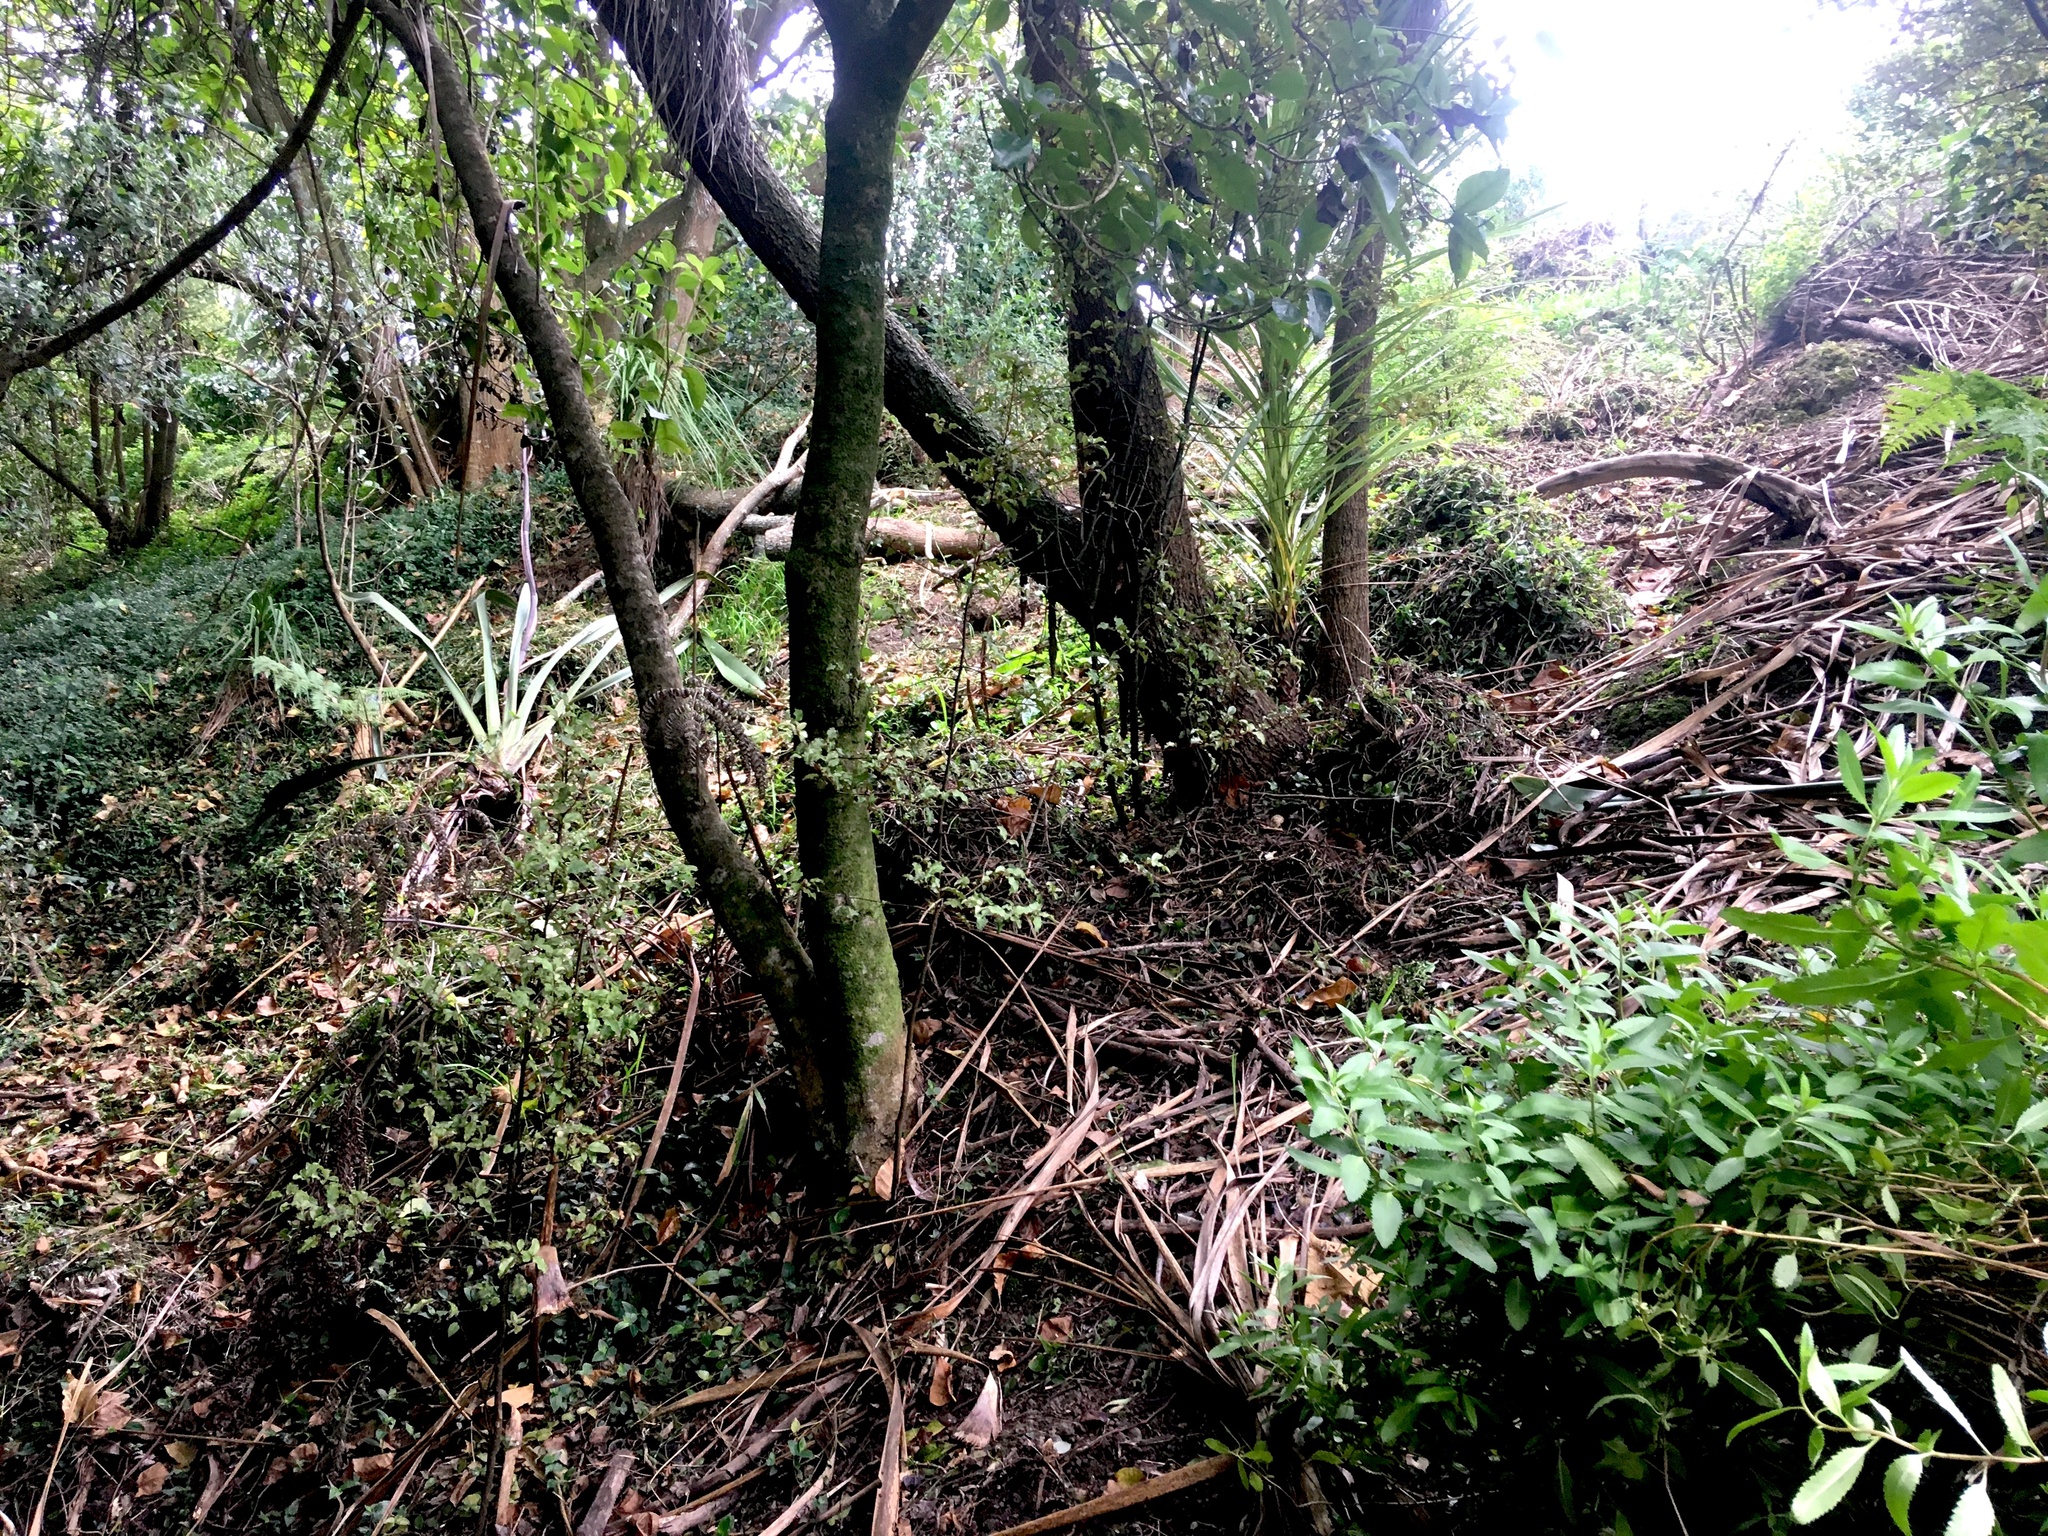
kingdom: Plantae
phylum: Tracheophyta
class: Liliopsida
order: Asparagales
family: Asparagaceae
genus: Cordyline
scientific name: Cordyline australis
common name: Cabbage-palm
